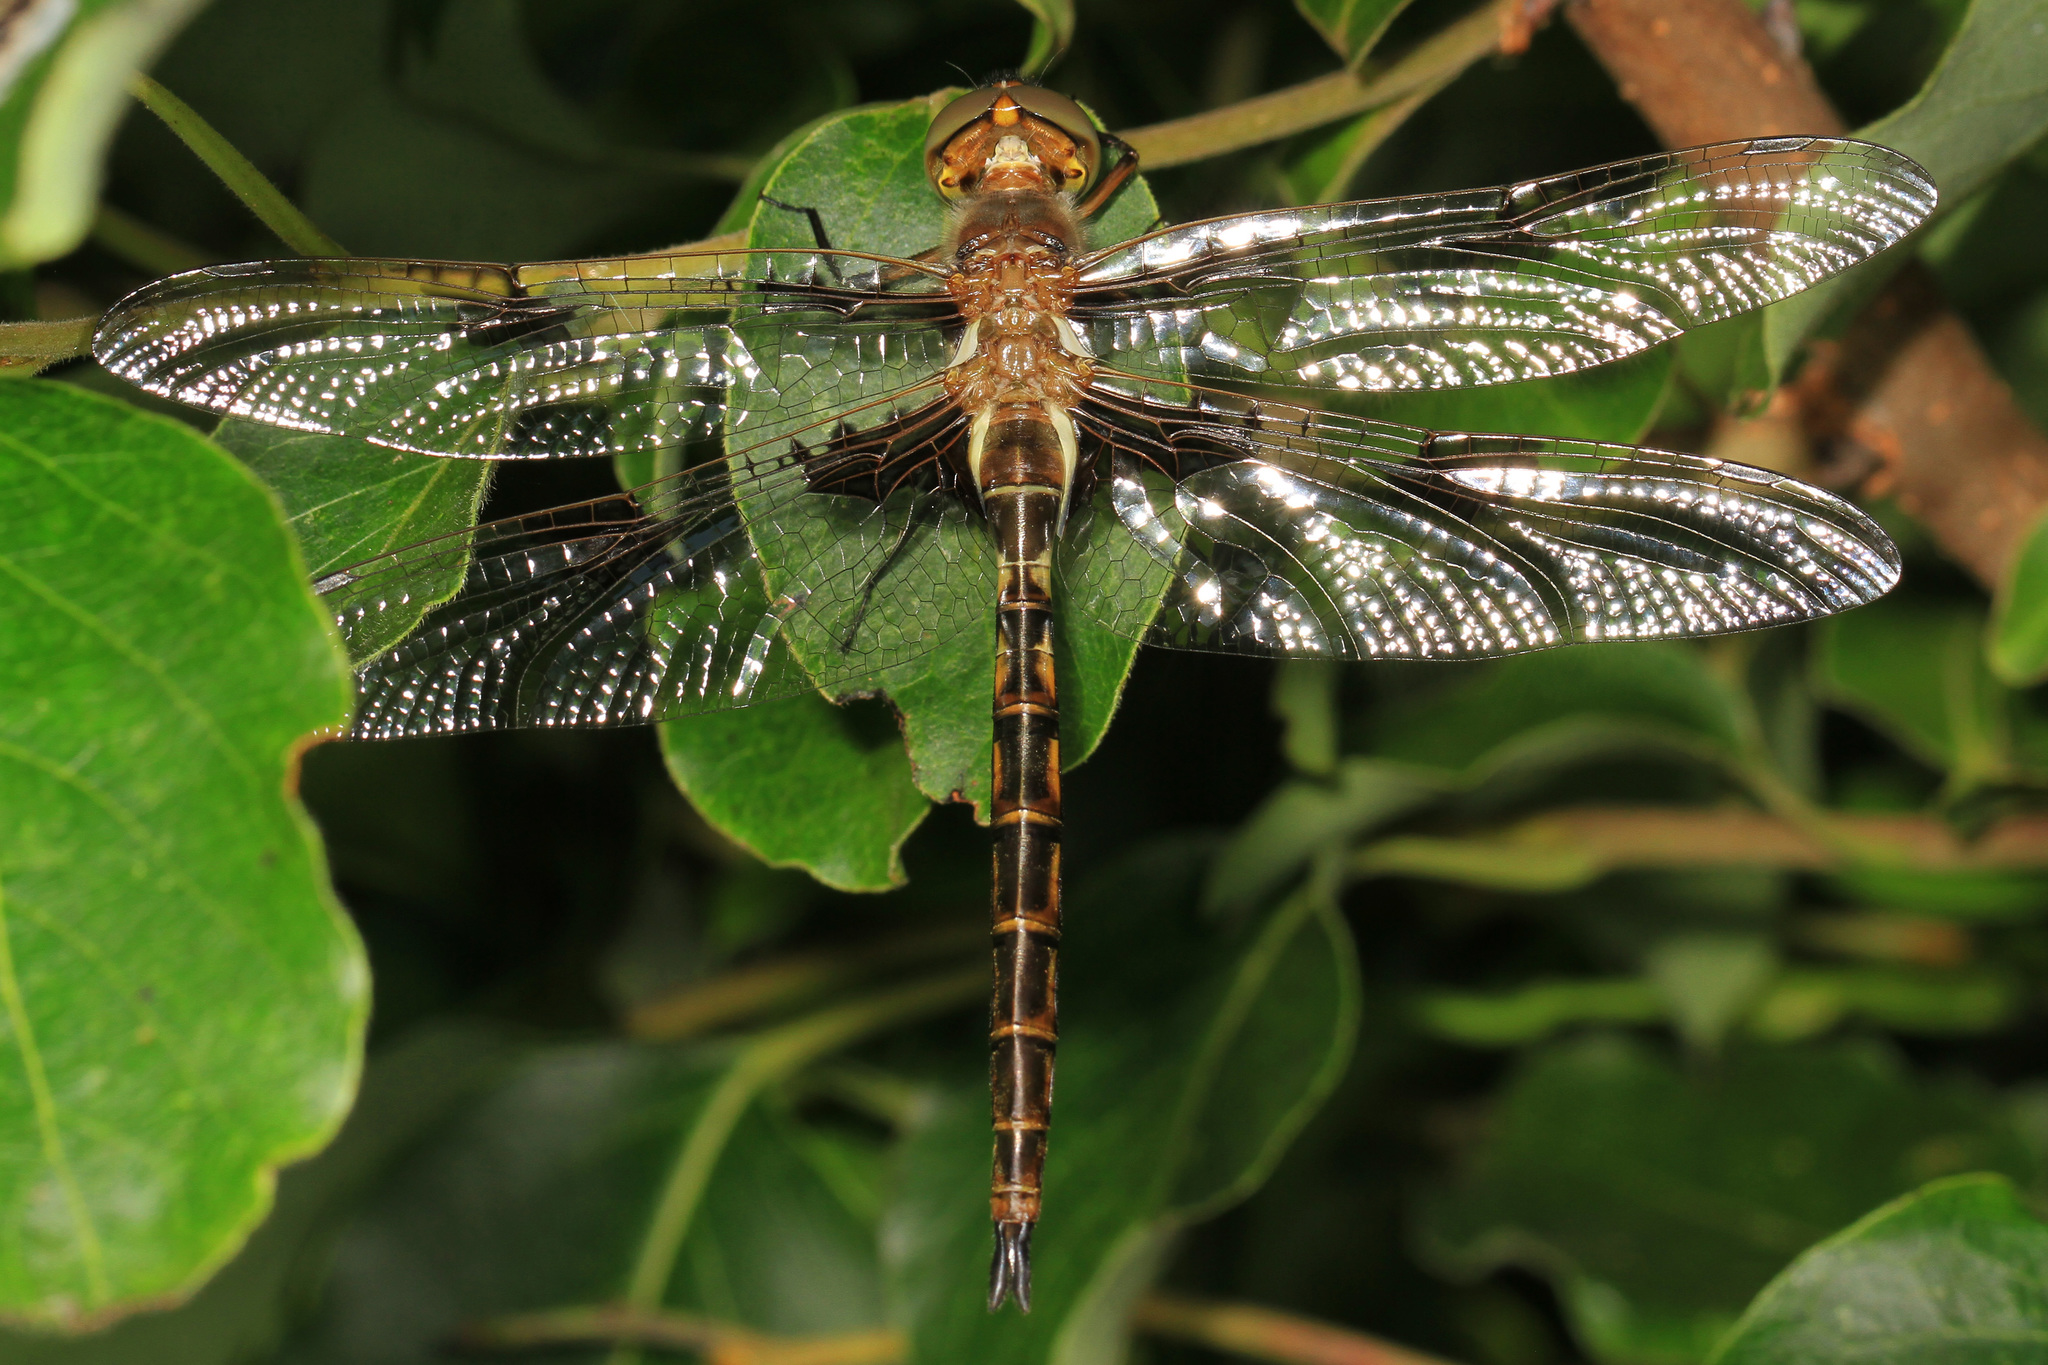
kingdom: Animalia
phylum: Arthropoda
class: Insecta
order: Odonata
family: Corduliidae
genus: Epitheca
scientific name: Epitheca princeps
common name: Prince baskettail
